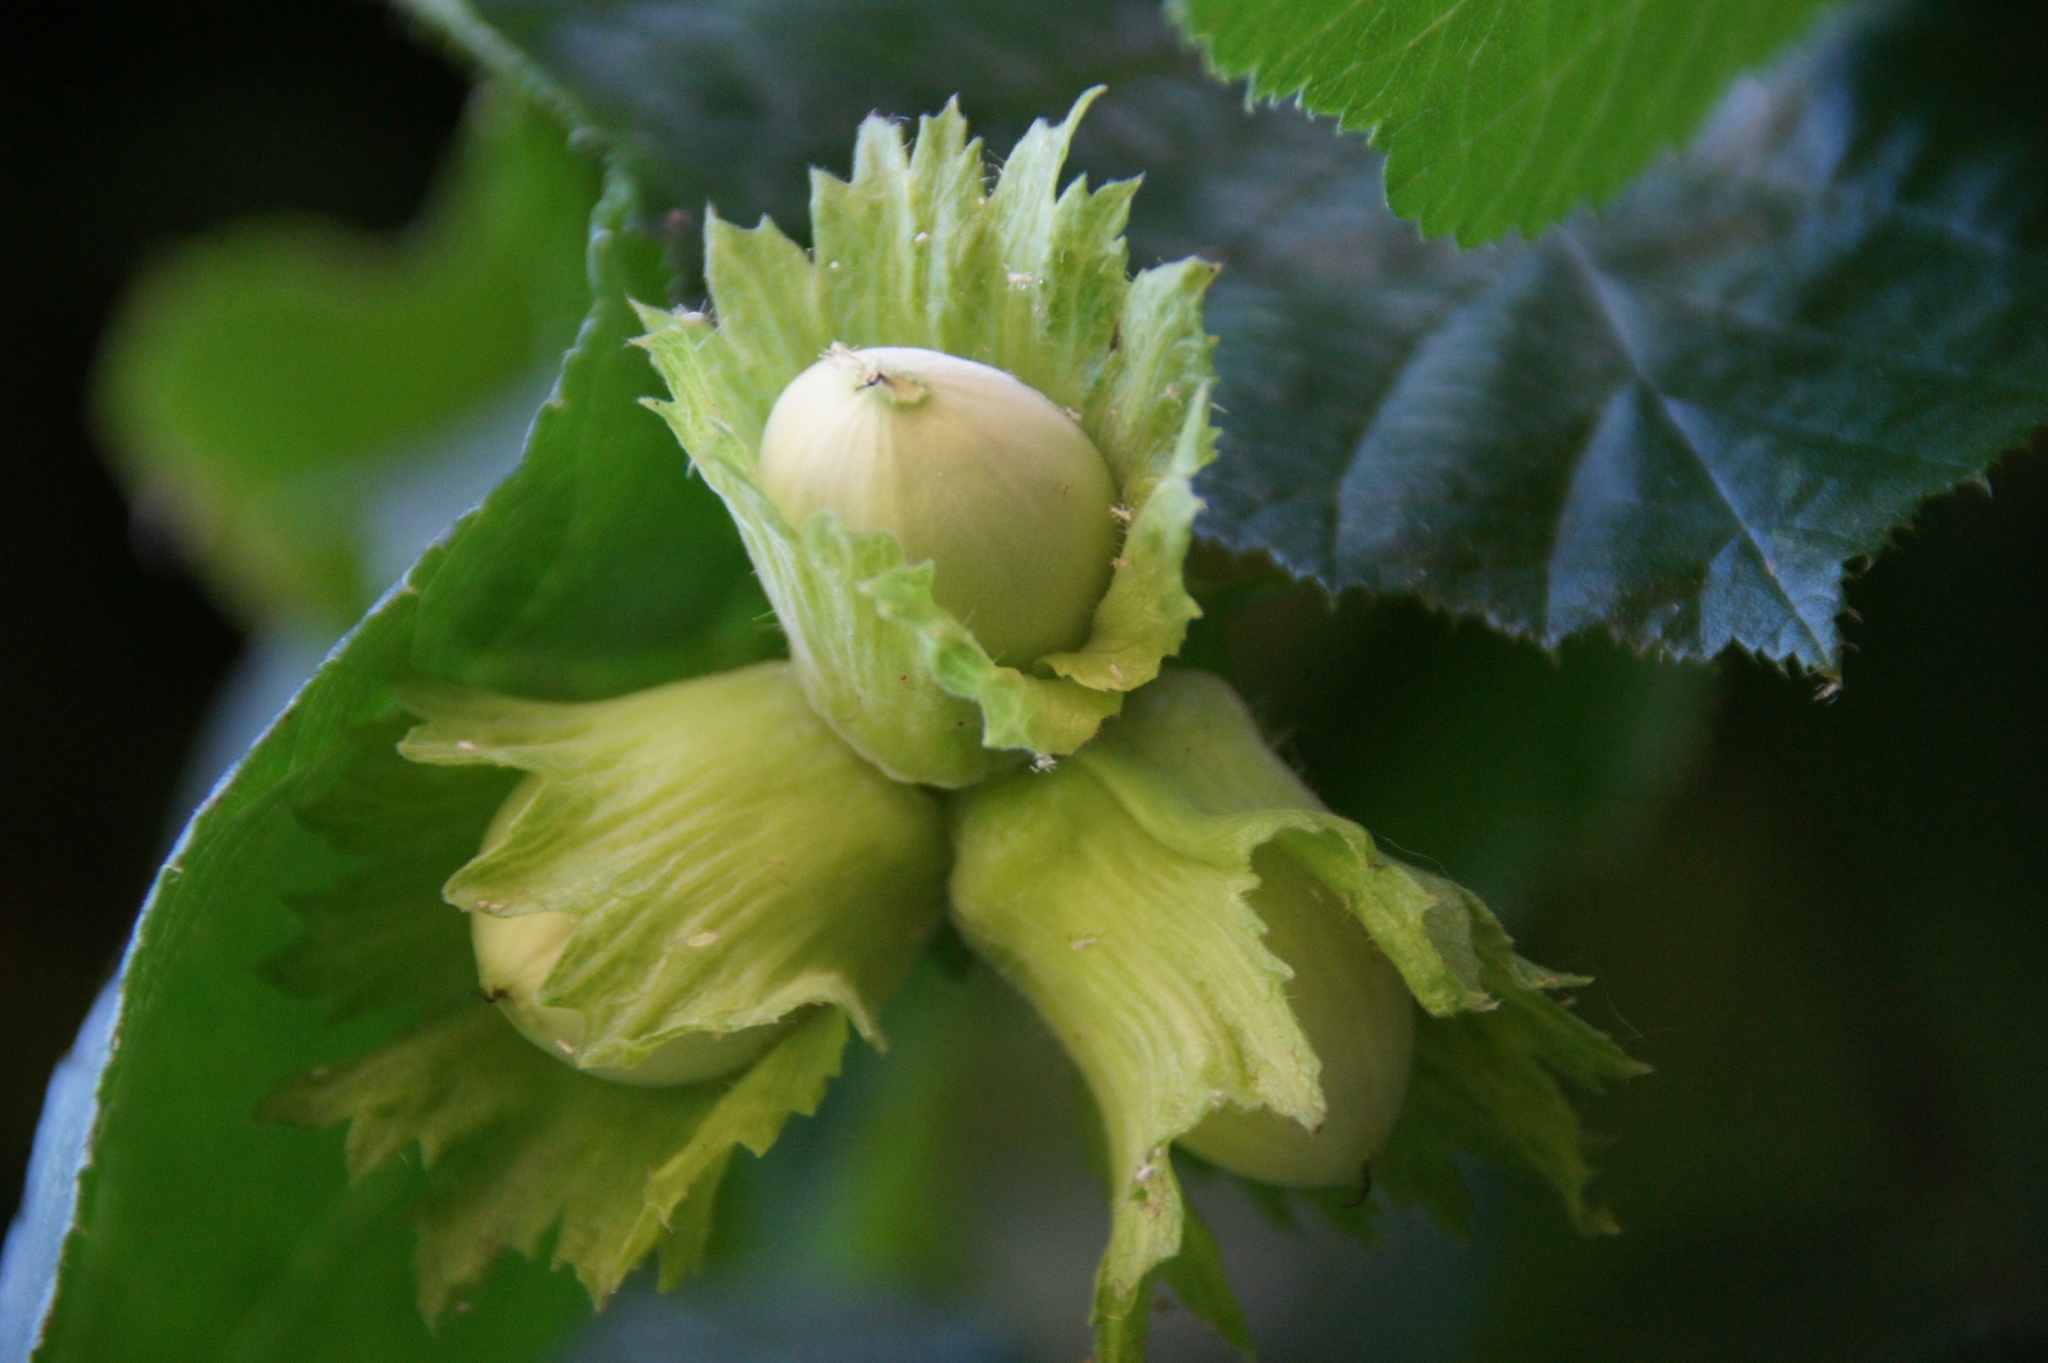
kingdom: Plantae
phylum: Tracheophyta
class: Magnoliopsida
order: Fagales
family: Betulaceae
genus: Corylus
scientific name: Corylus avellana
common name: European hazel
